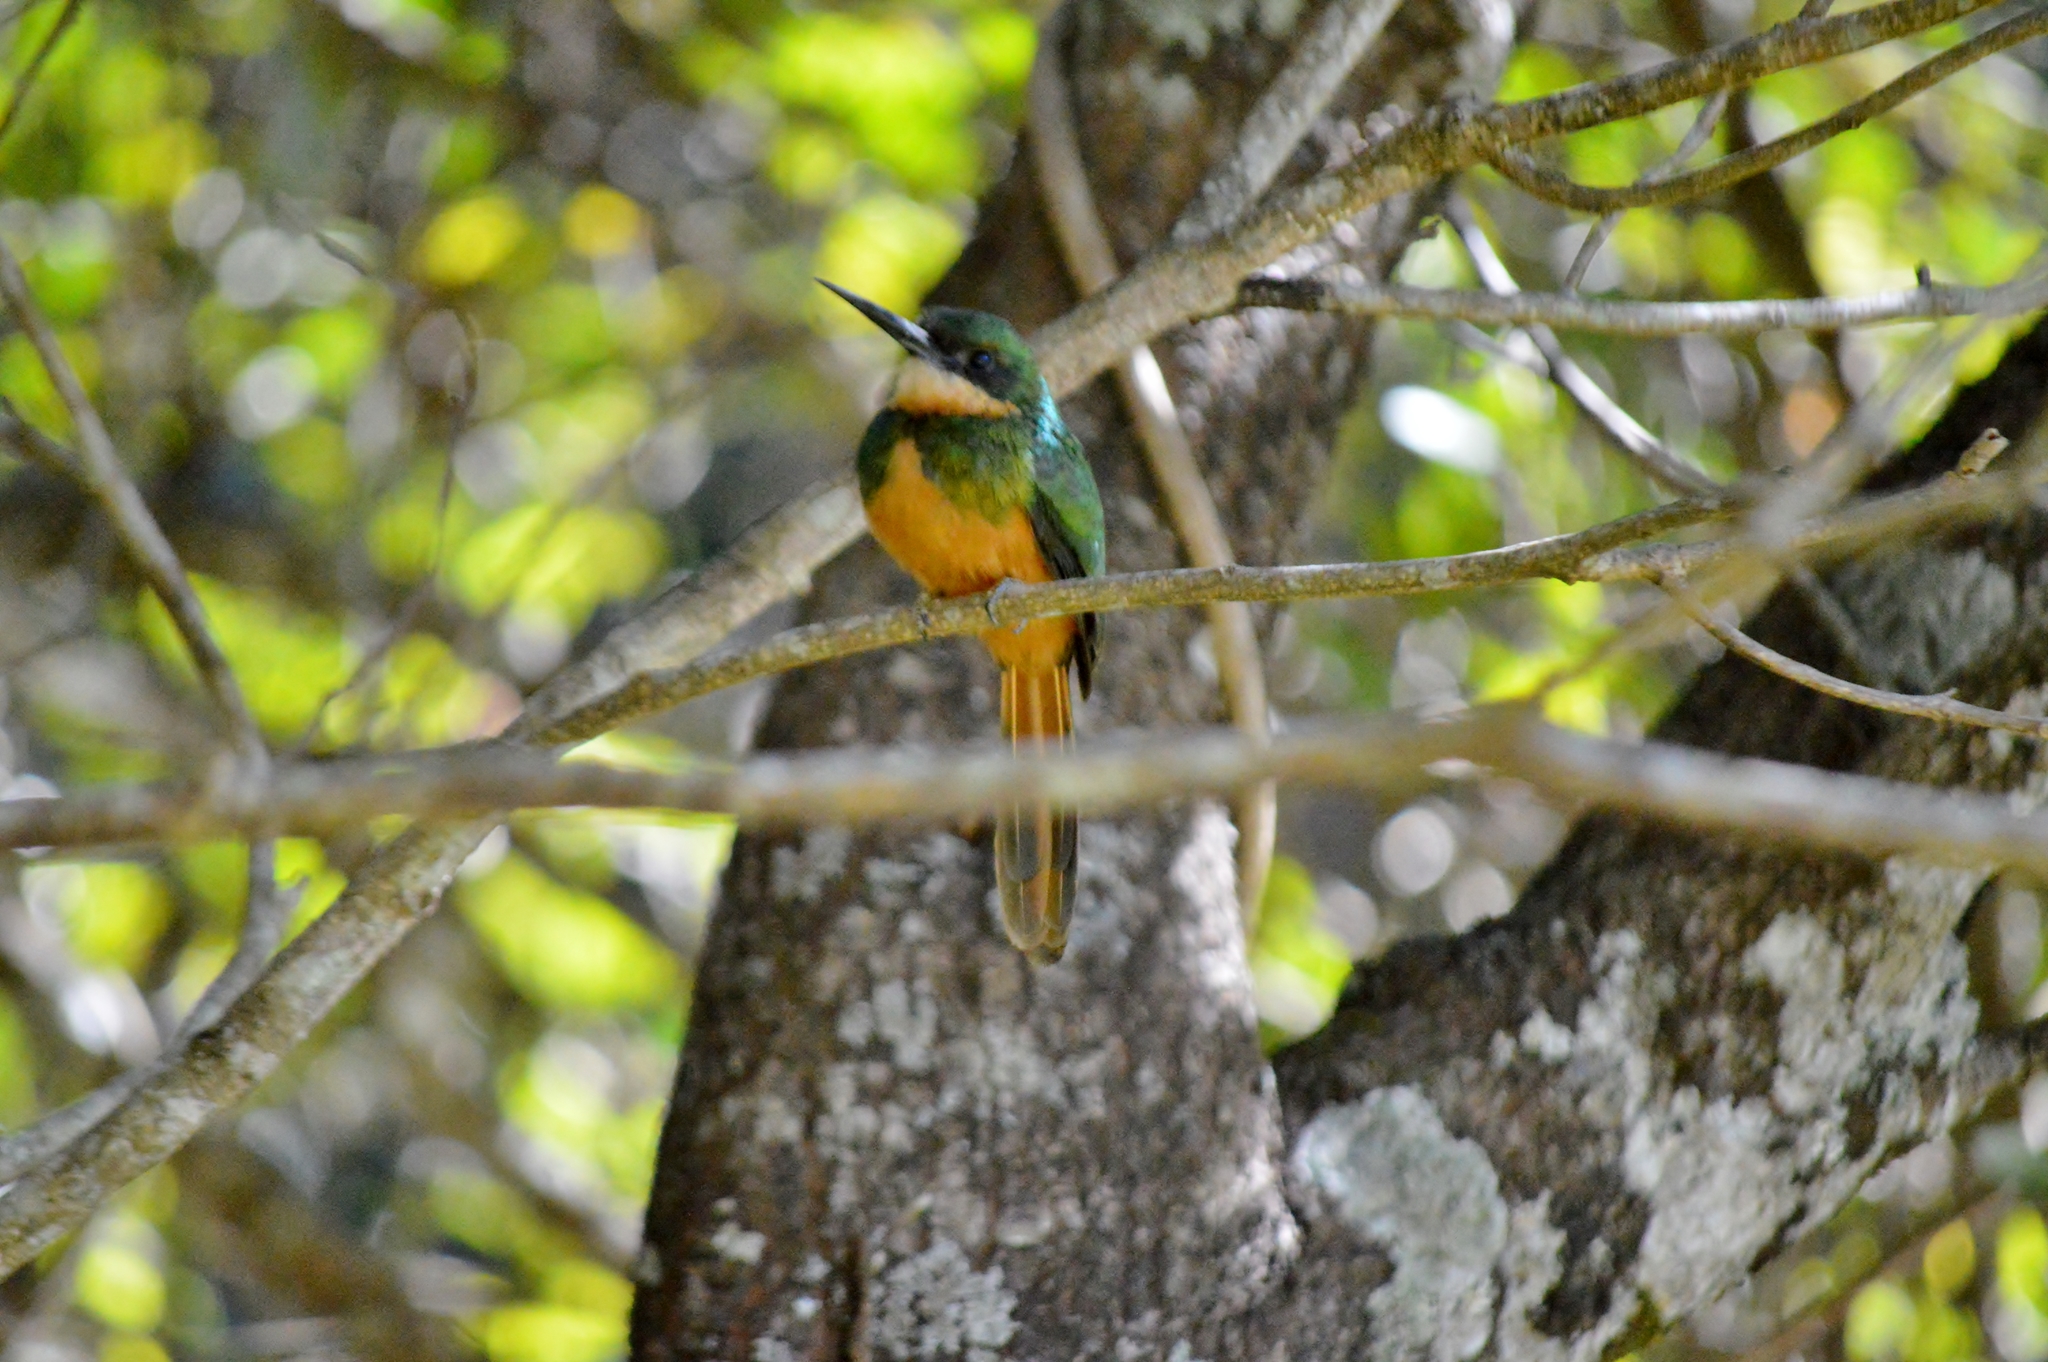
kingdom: Animalia
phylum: Chordata
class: Aves
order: Piciformes
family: Galbulidae
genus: Galbula
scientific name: Galbula ruficauda
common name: Rufous-tailed jacamar
